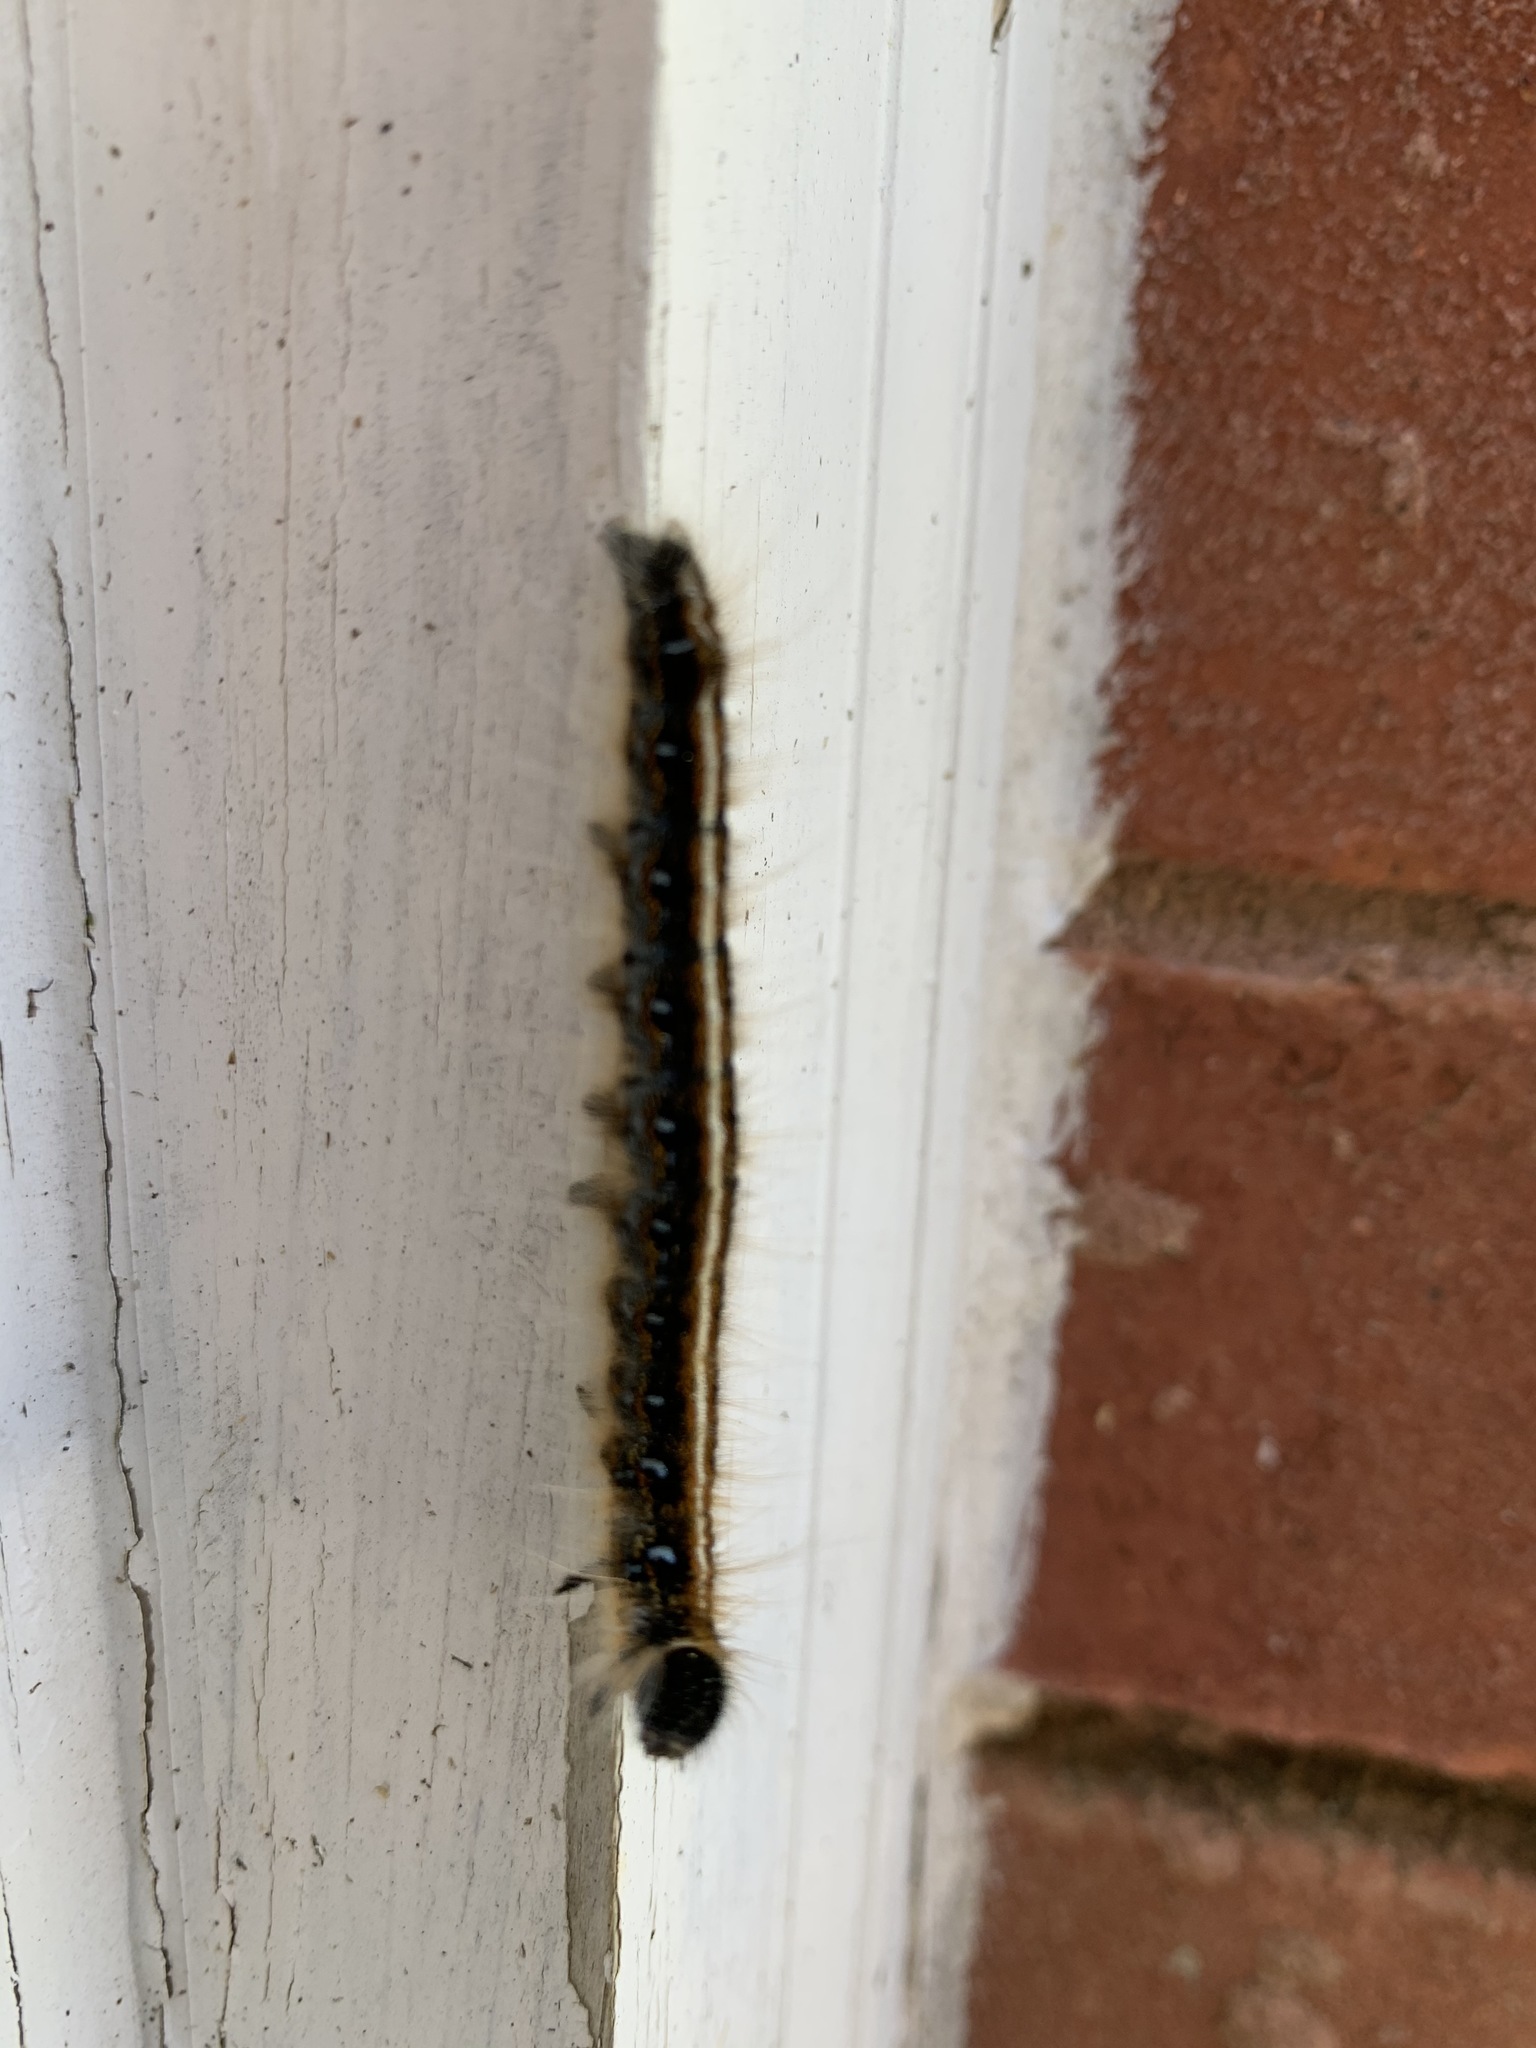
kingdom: Animalia
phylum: Arthropoda
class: Insecta
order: Lepidoptera
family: Lasiocampidae
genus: Malacosoma
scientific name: Malacosoma americana
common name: Eastern tent caterpillar moth
